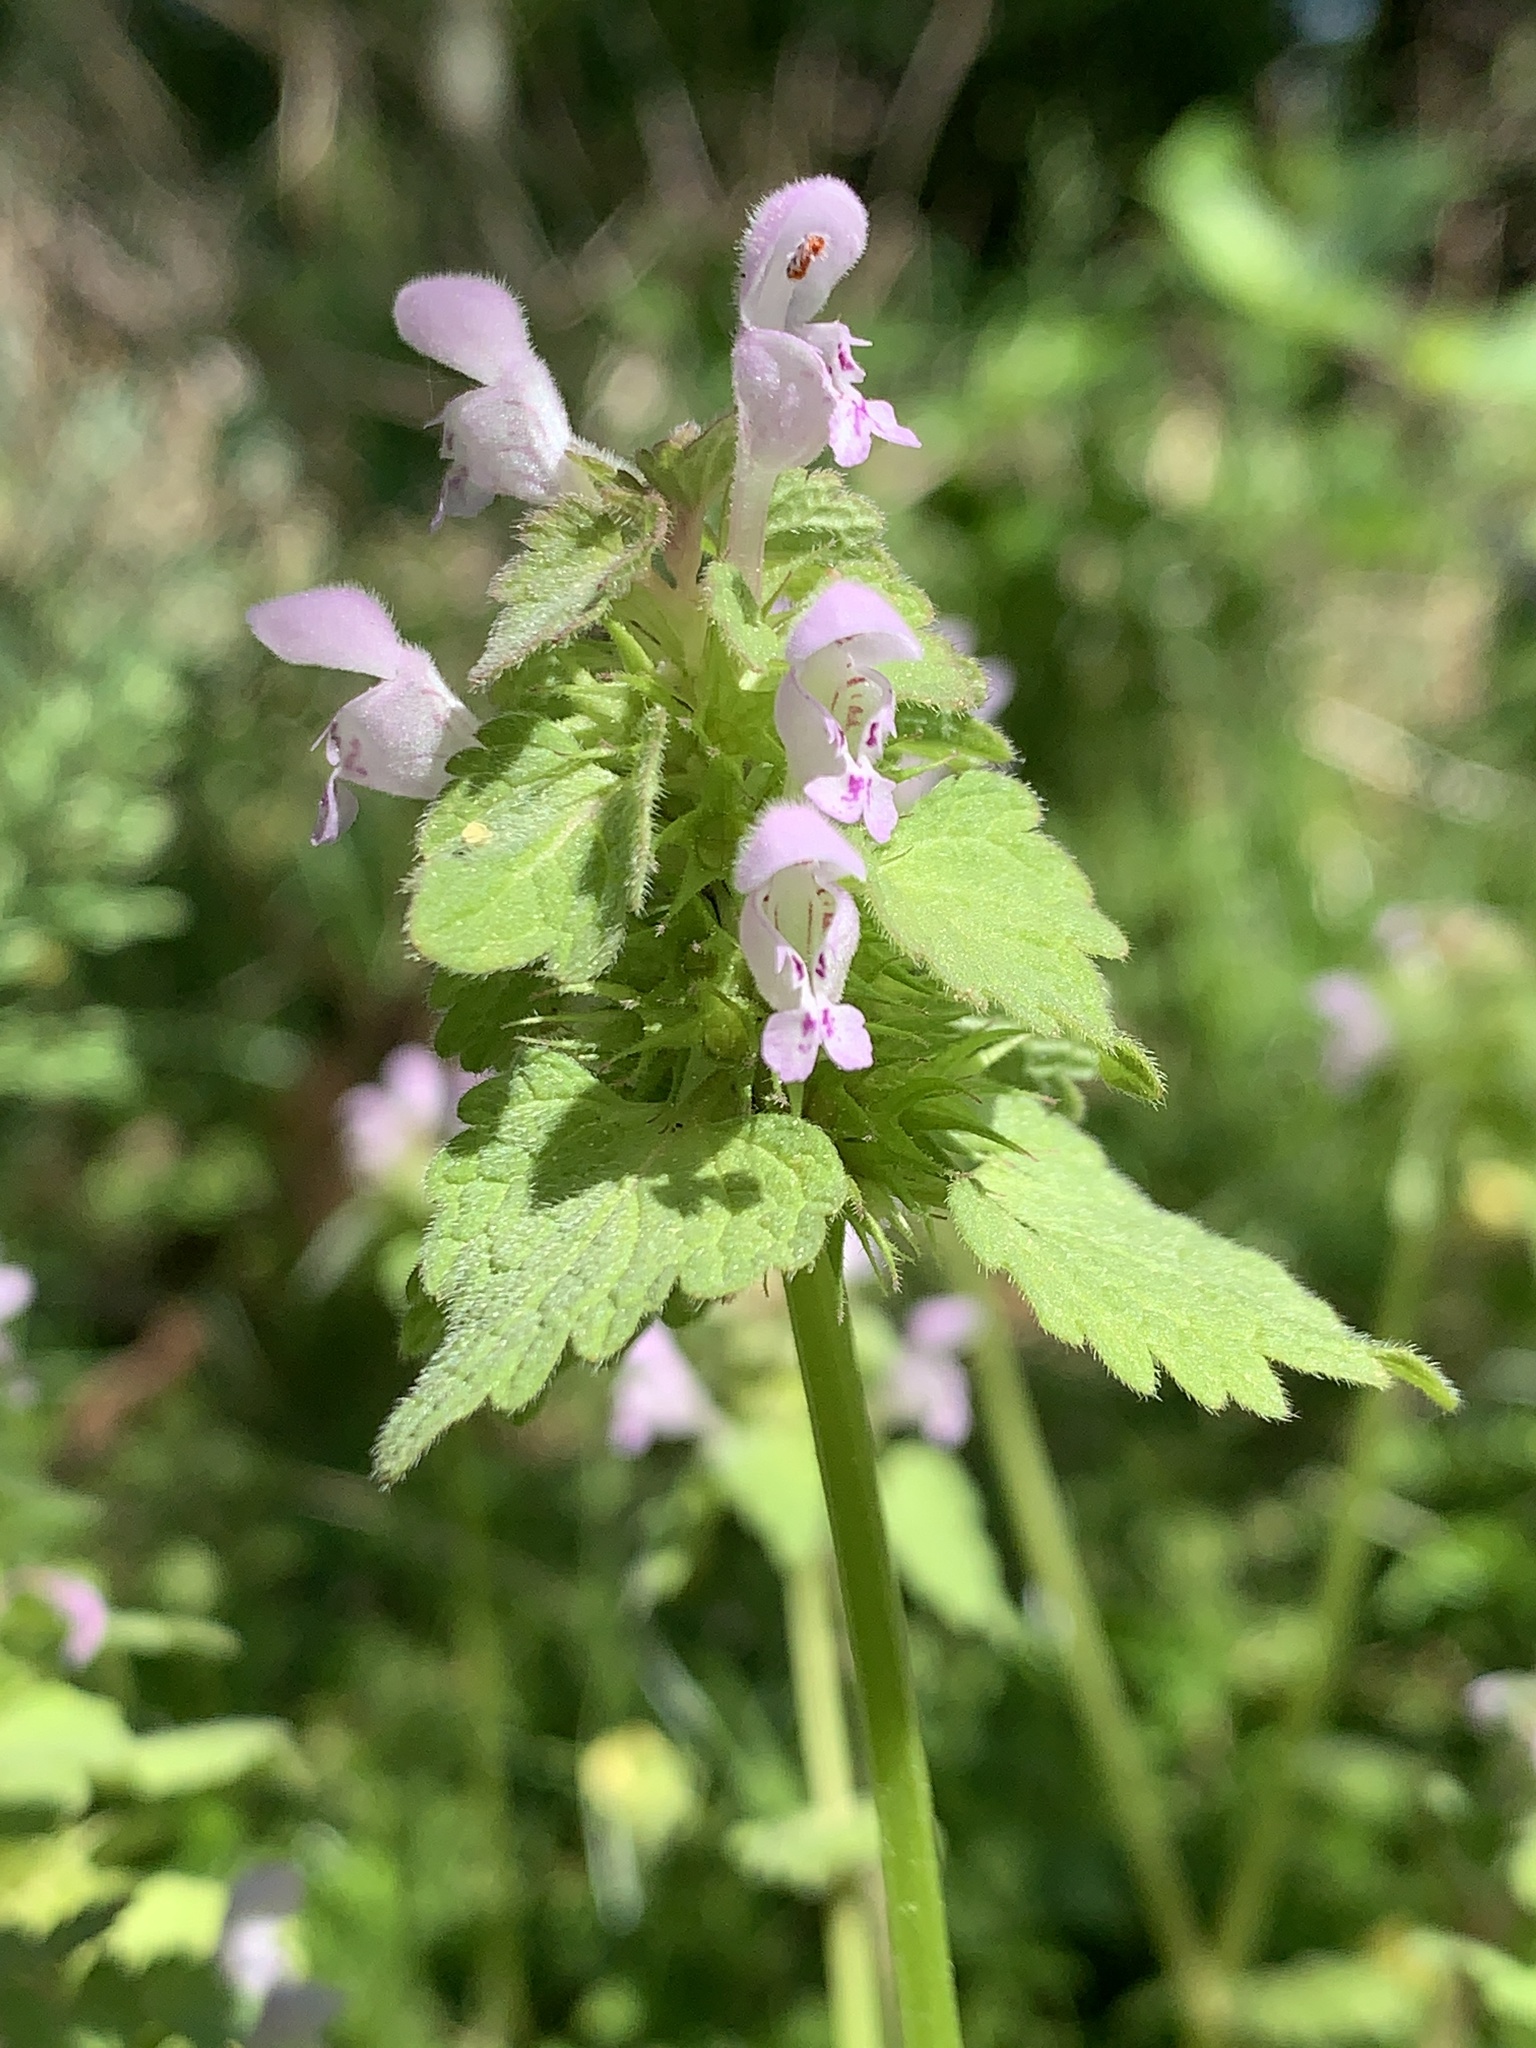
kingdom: Plantae
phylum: Tracheophyta
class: Magnoliopsida
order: Lamiales
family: Lamiaceae
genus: Lamium
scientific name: Lamium purpureum
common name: Red dead-nettle
